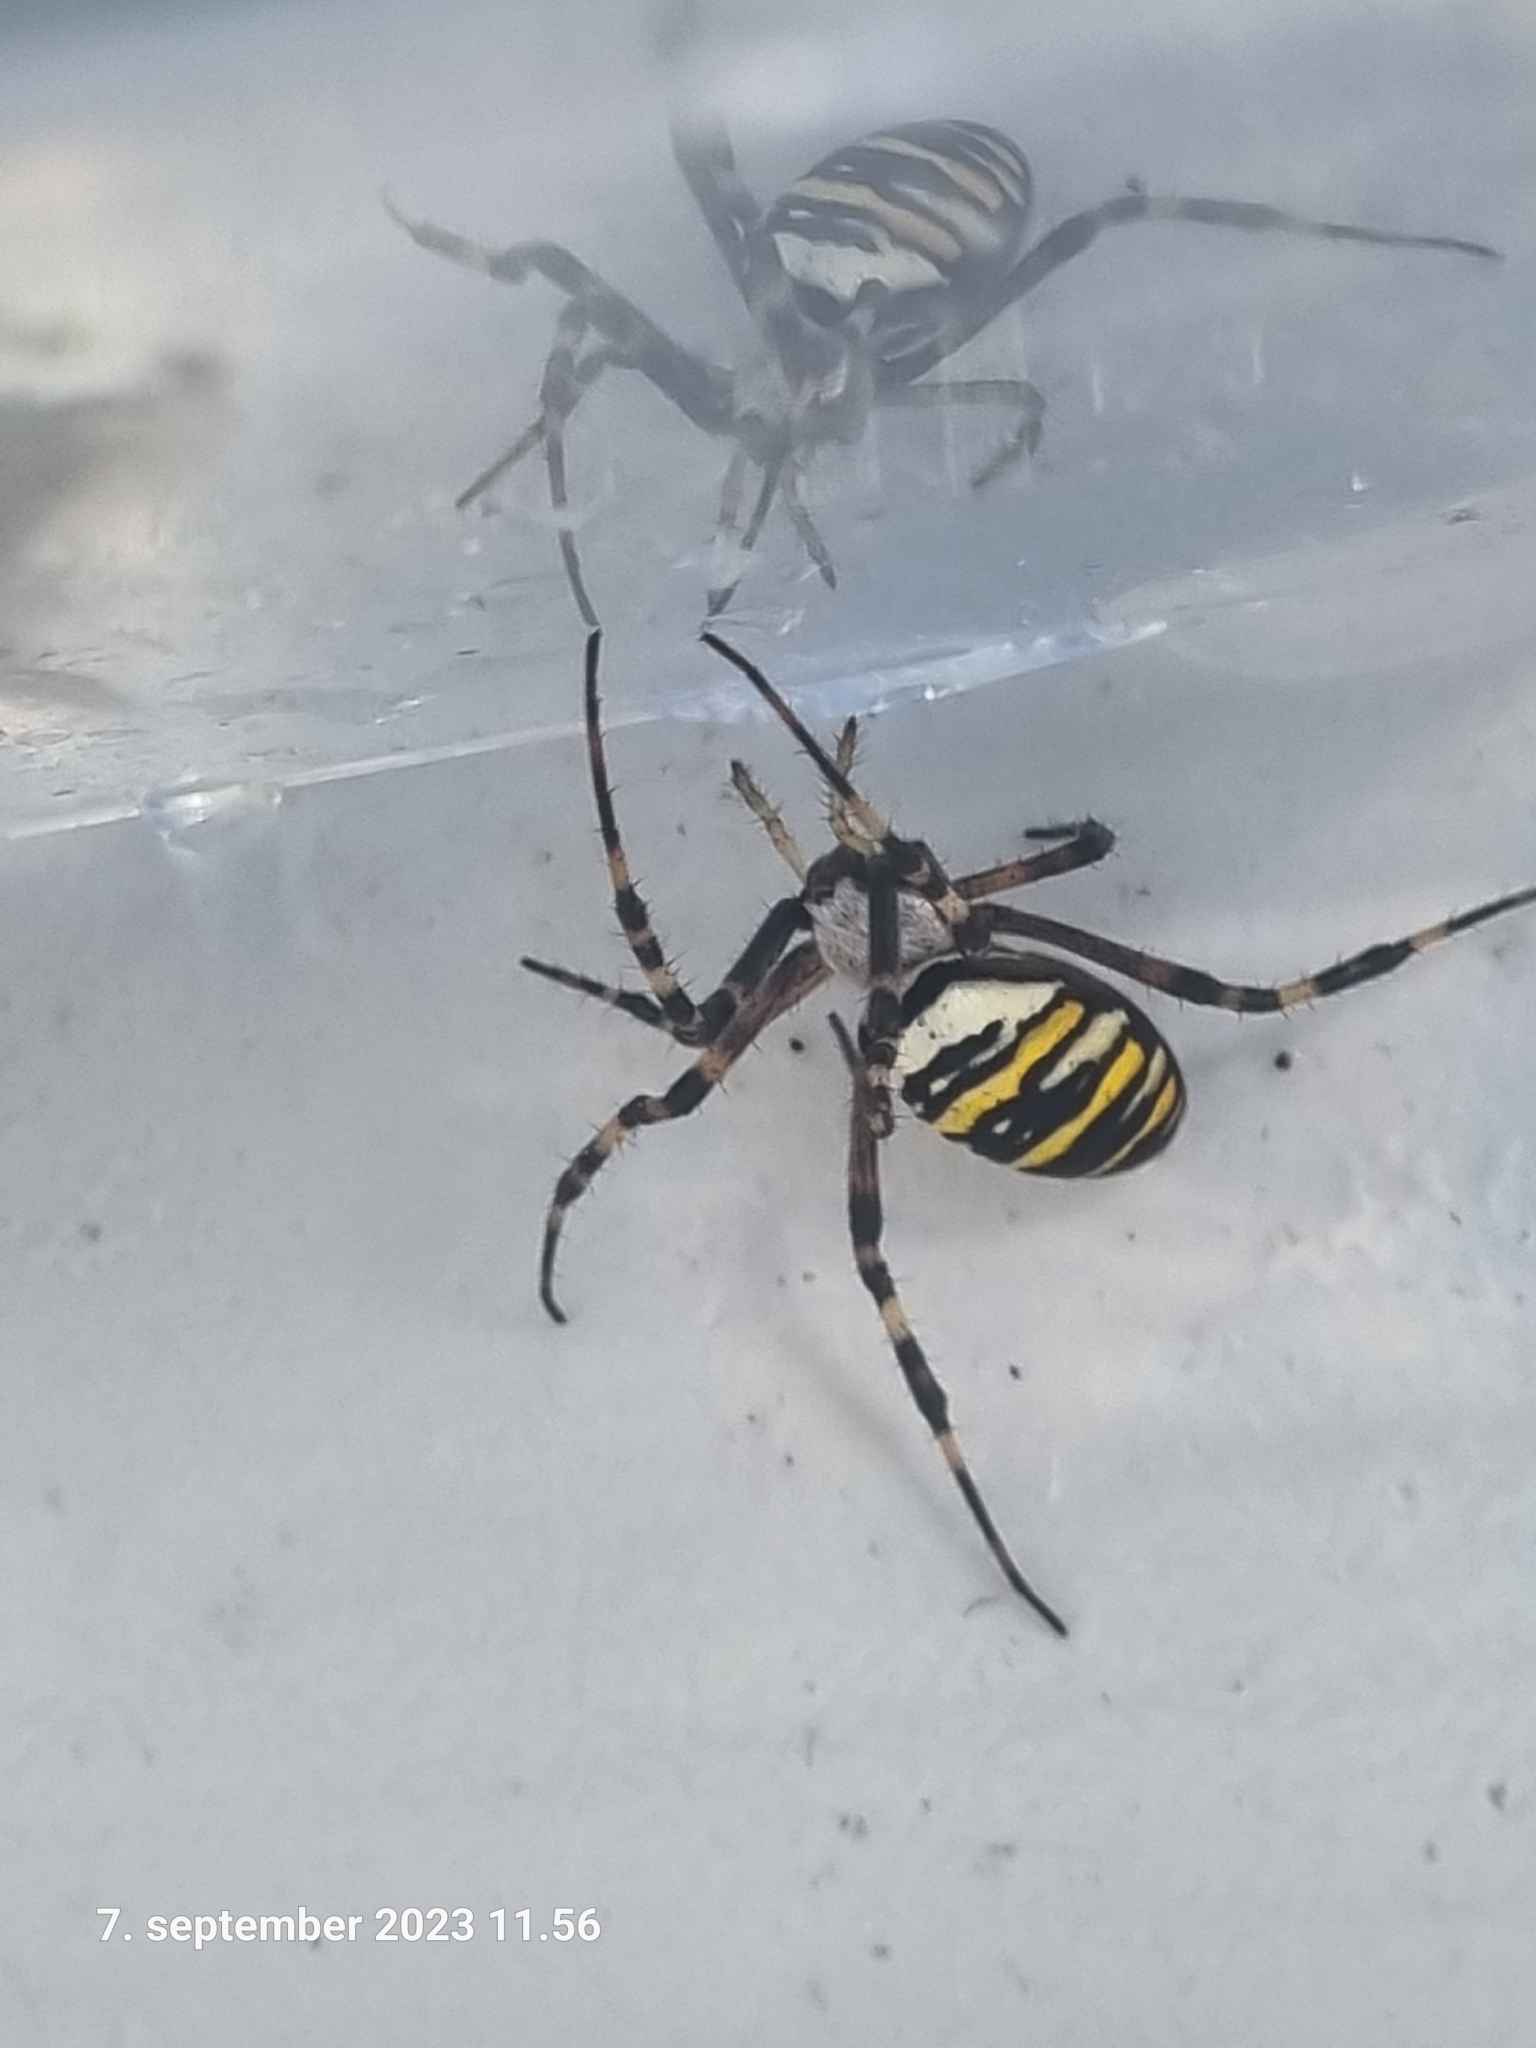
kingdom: Animalia
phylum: Arthropoda
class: Arachnida
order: Araneae
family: Araneidae
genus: Argiope
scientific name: Argiope bruennichi
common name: Wasp spider
